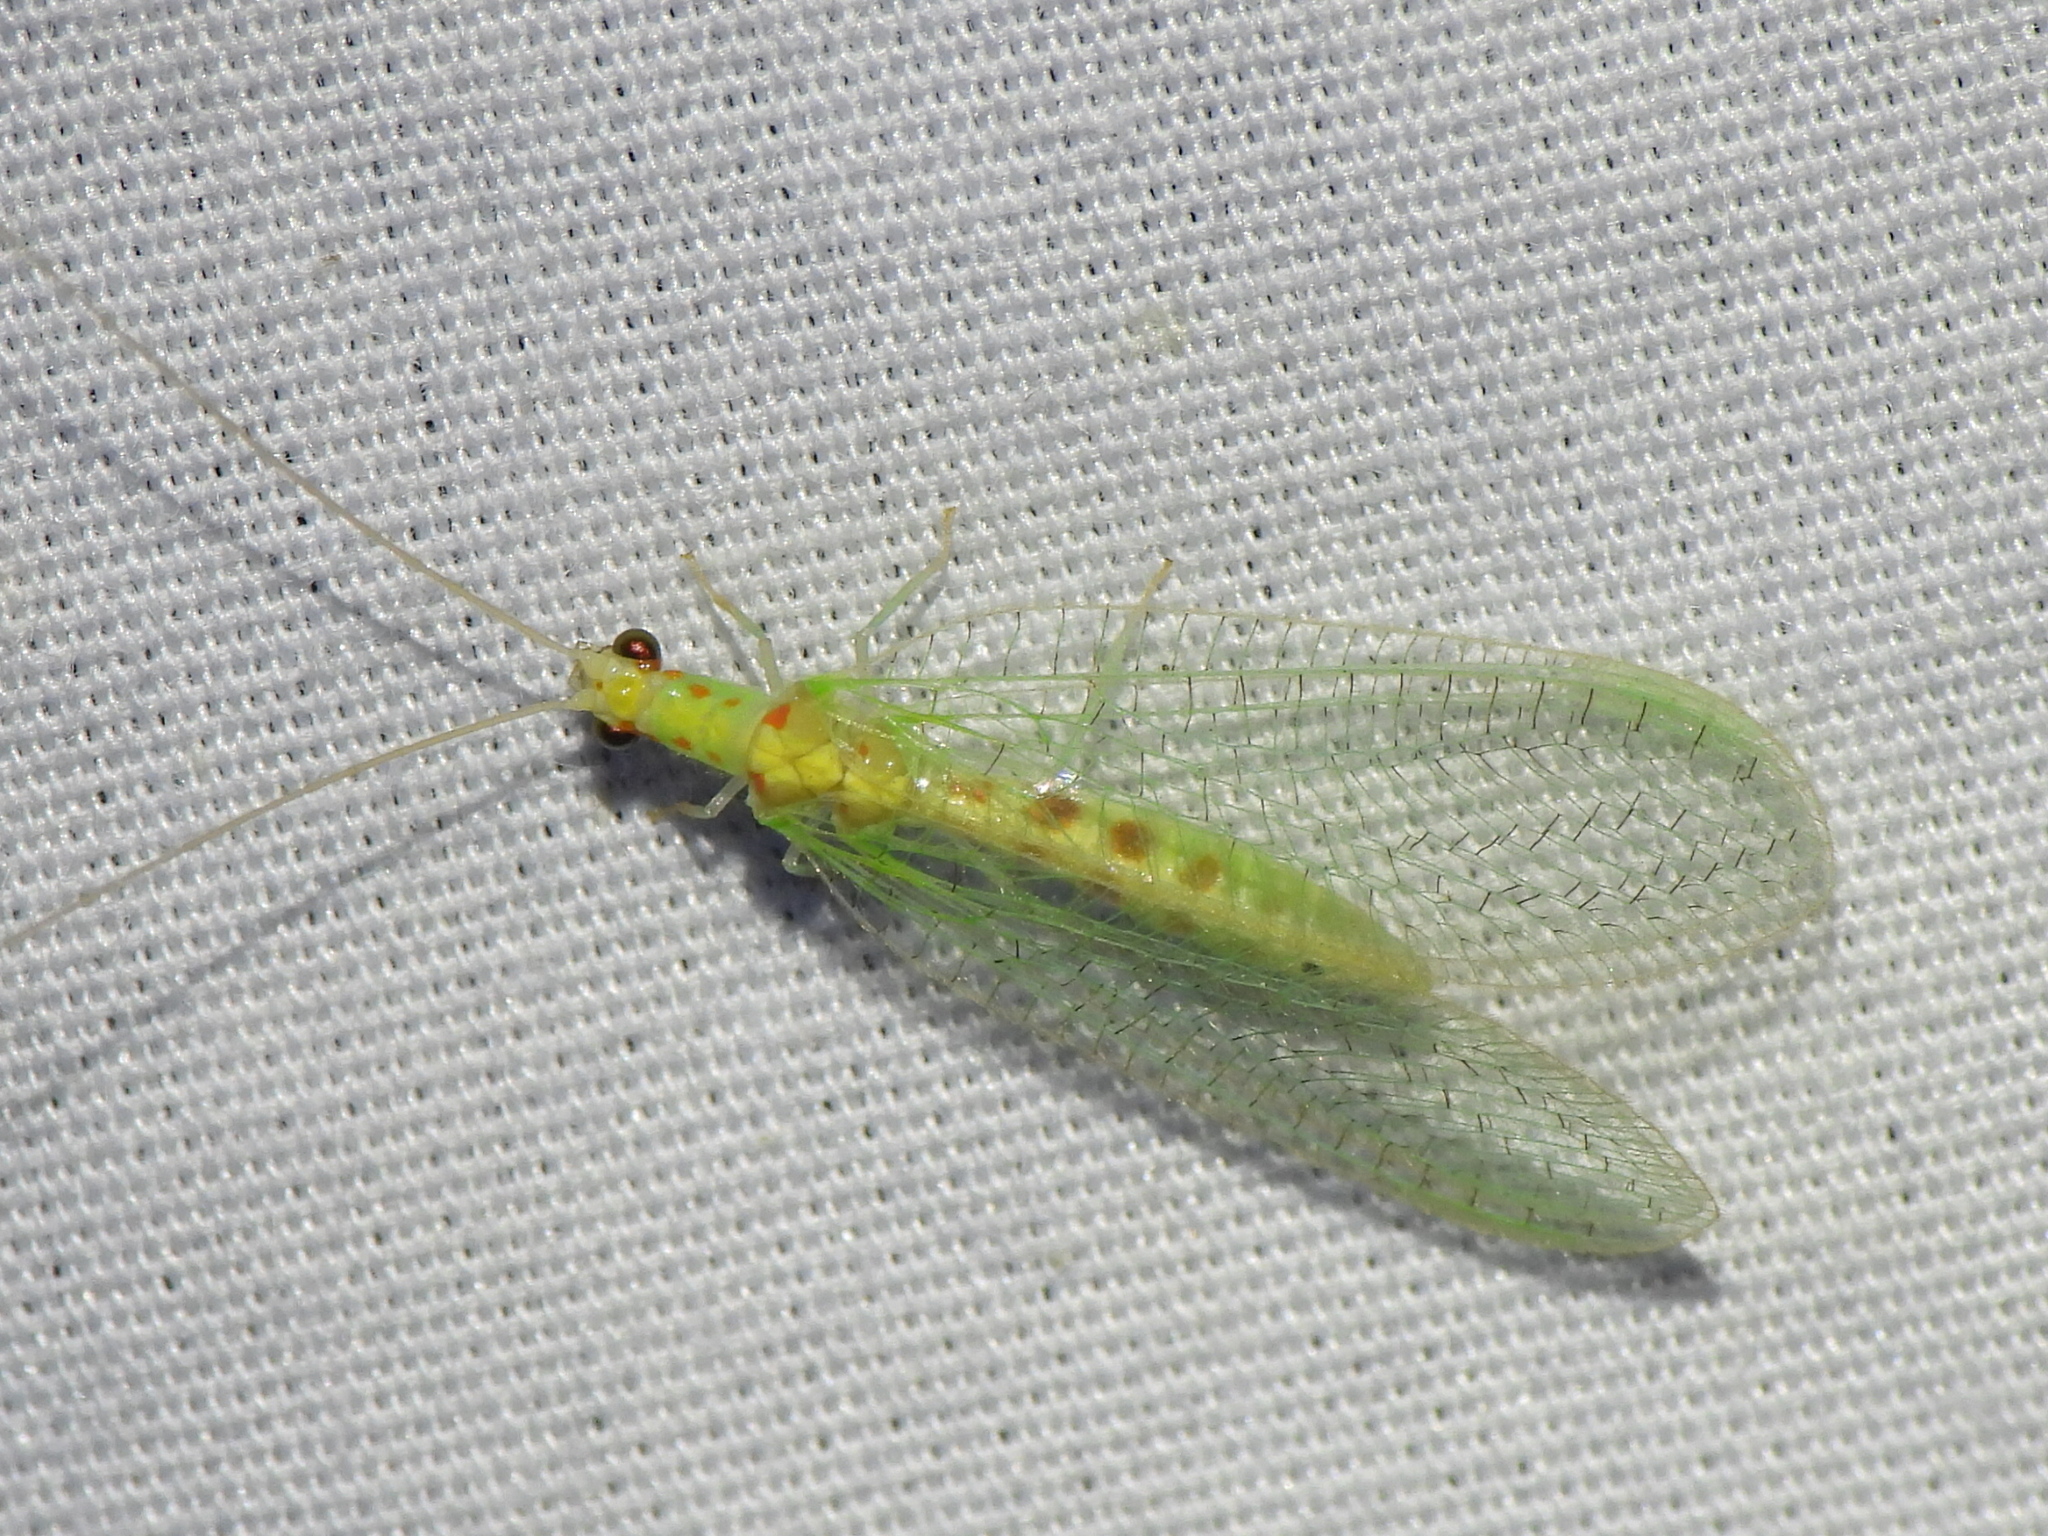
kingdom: Animalia
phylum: Arthropoda
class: Insecta
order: Neuroptera
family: Chrysopidae
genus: Chrysopa
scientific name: Chrysopa quadripunctata
